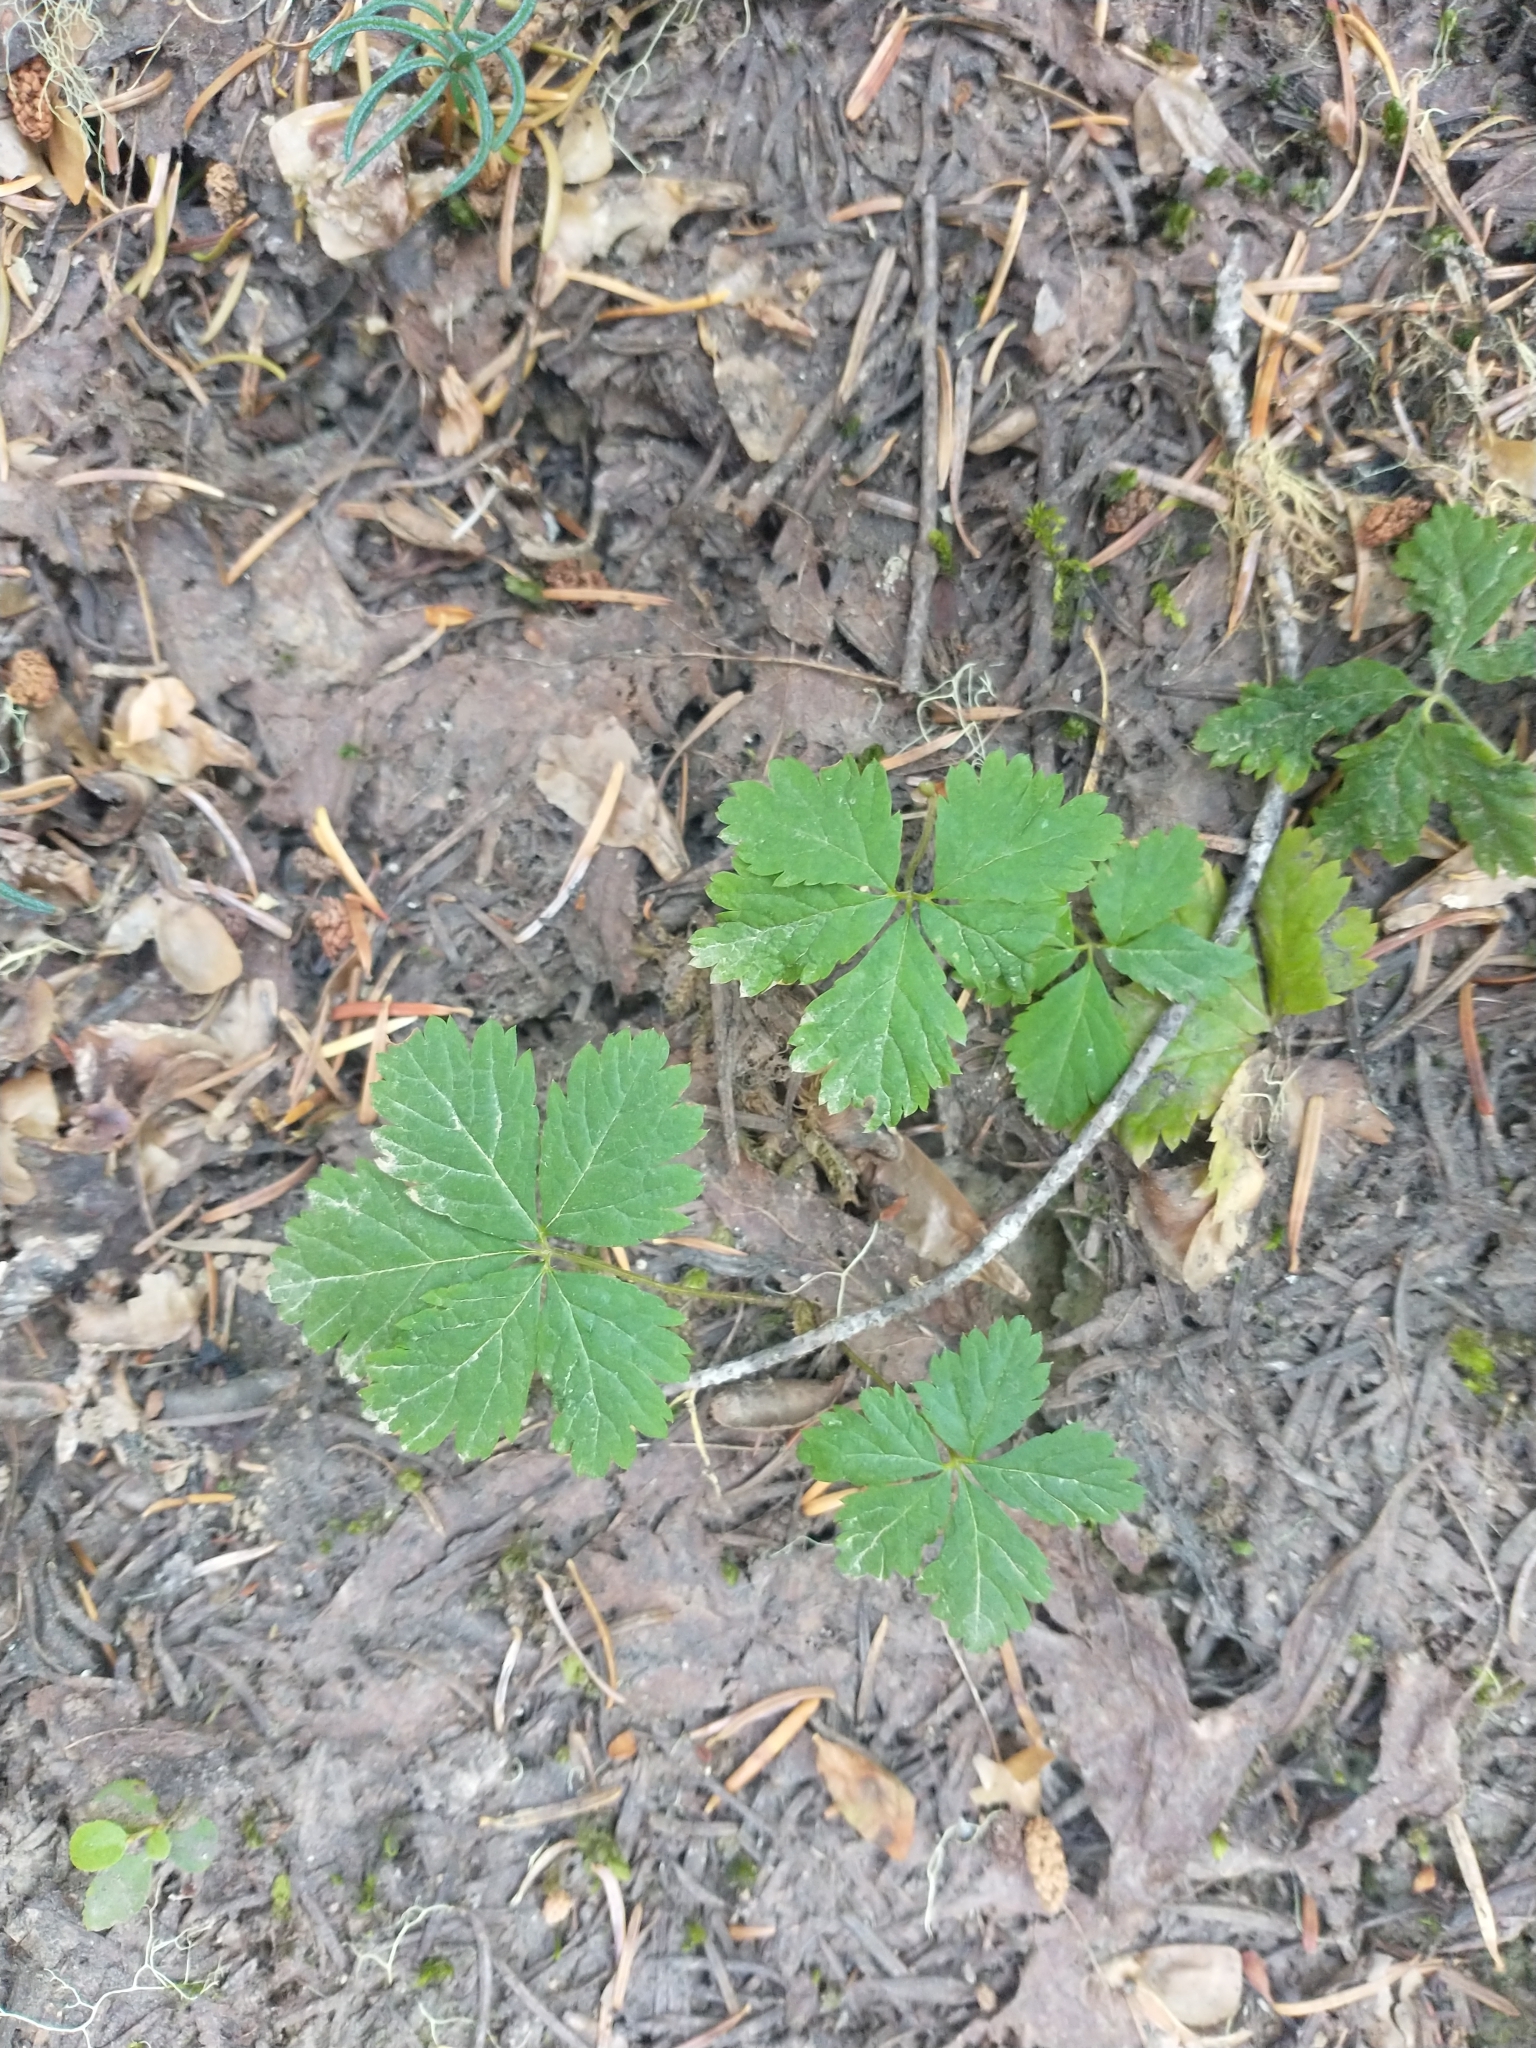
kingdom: Plantae
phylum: Tracheophyta
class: Magnoliopsida
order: Rosales
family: Rosaceae
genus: Rubus
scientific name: Rubus pedatus
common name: Creeping raspberry
